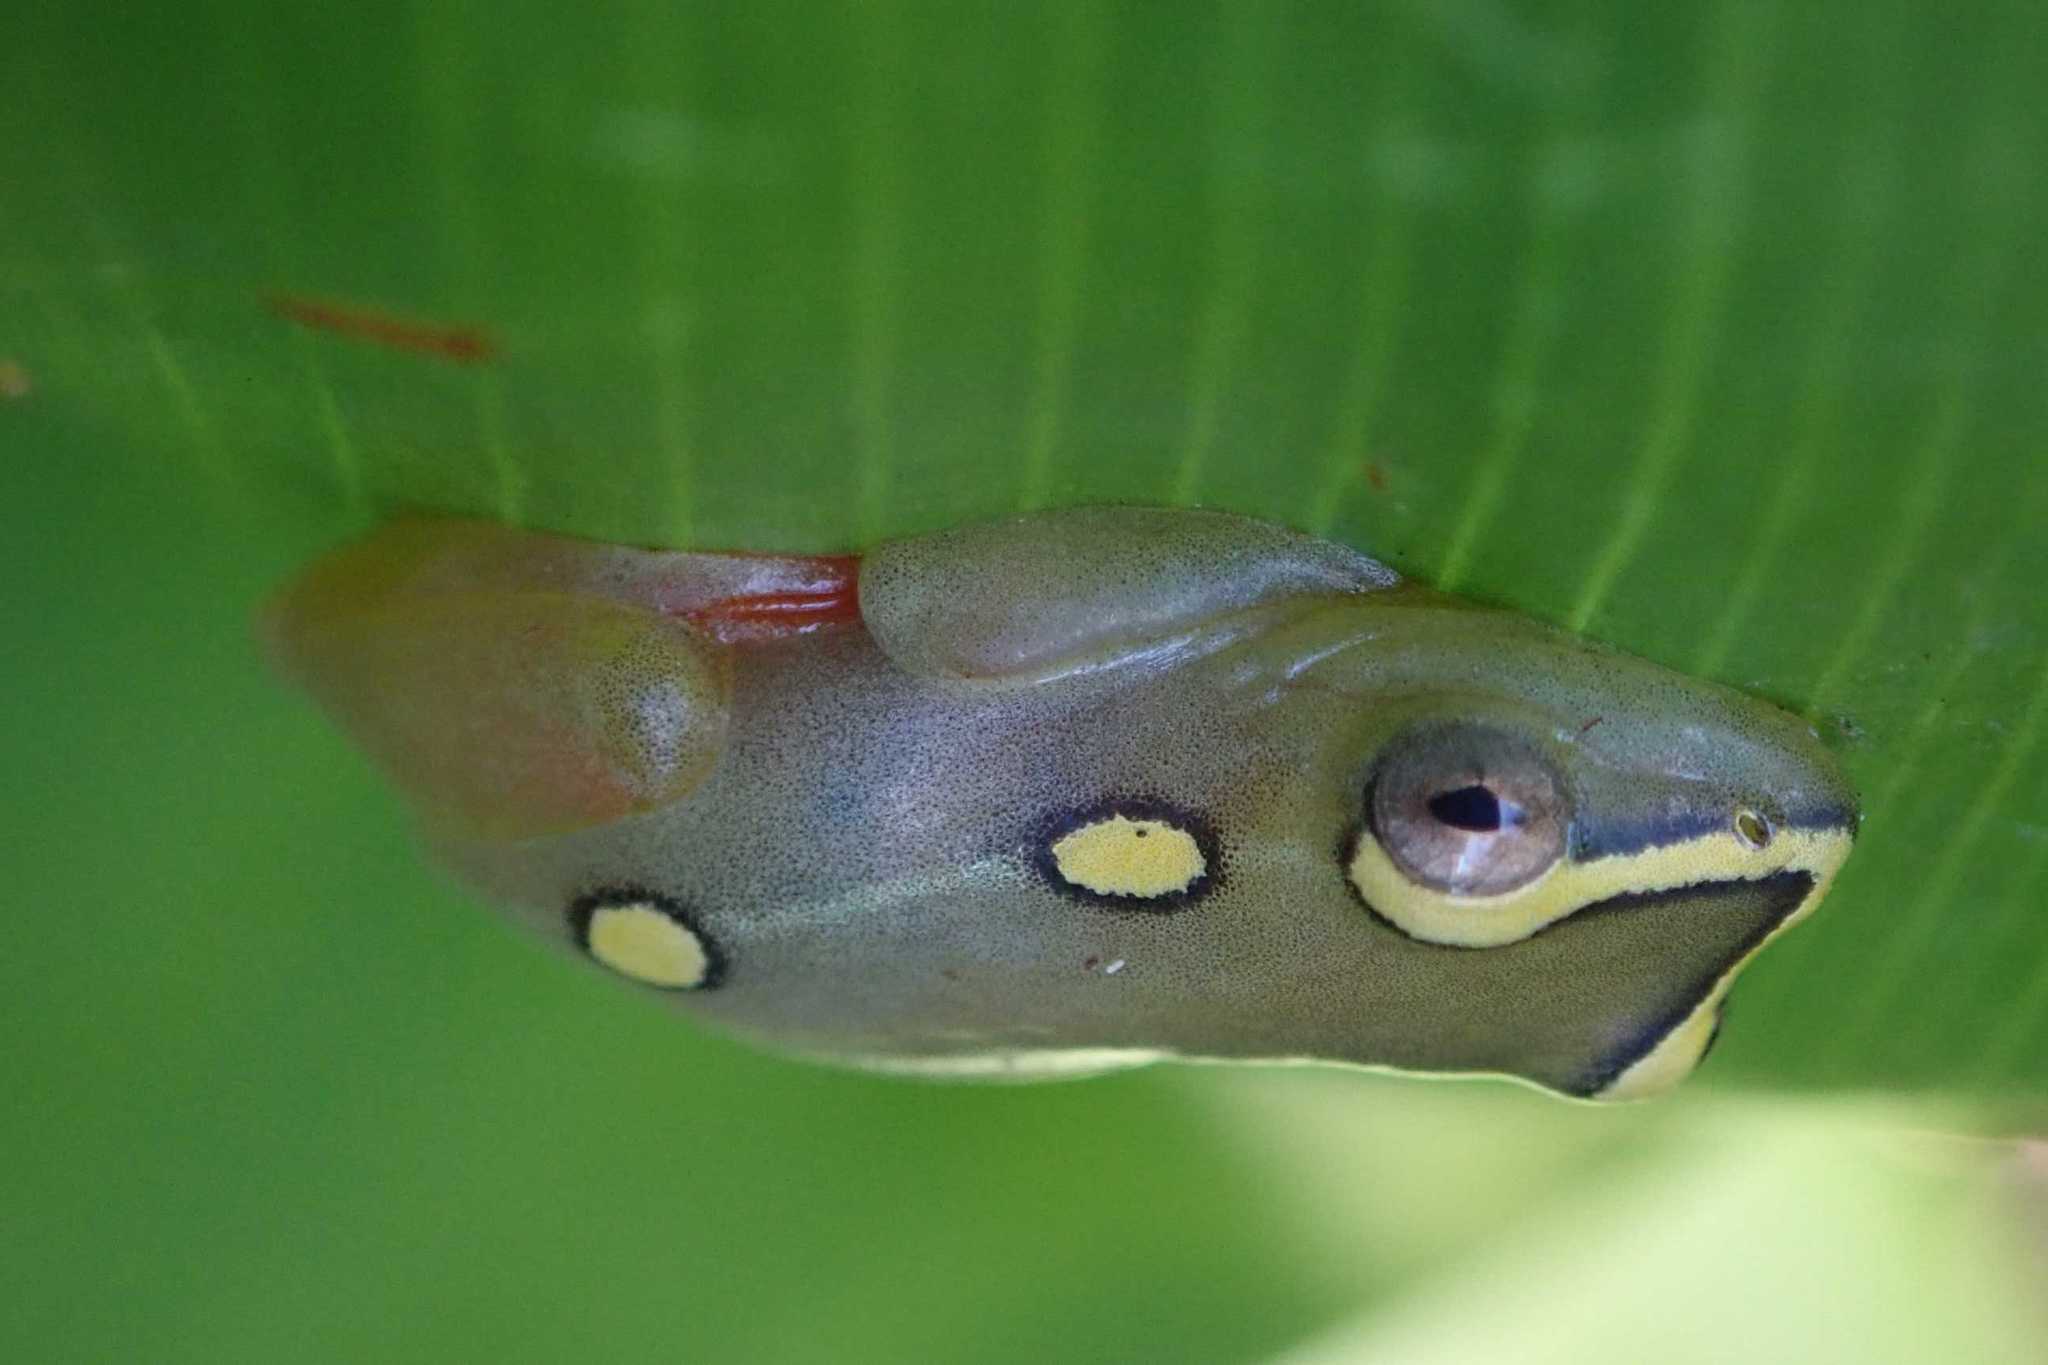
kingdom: Animalia
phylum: Chordata
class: Amphibia
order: Anura
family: Hyperoliidae
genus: Hyperolius
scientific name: Hyperolius argus
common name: Argus reed frog
